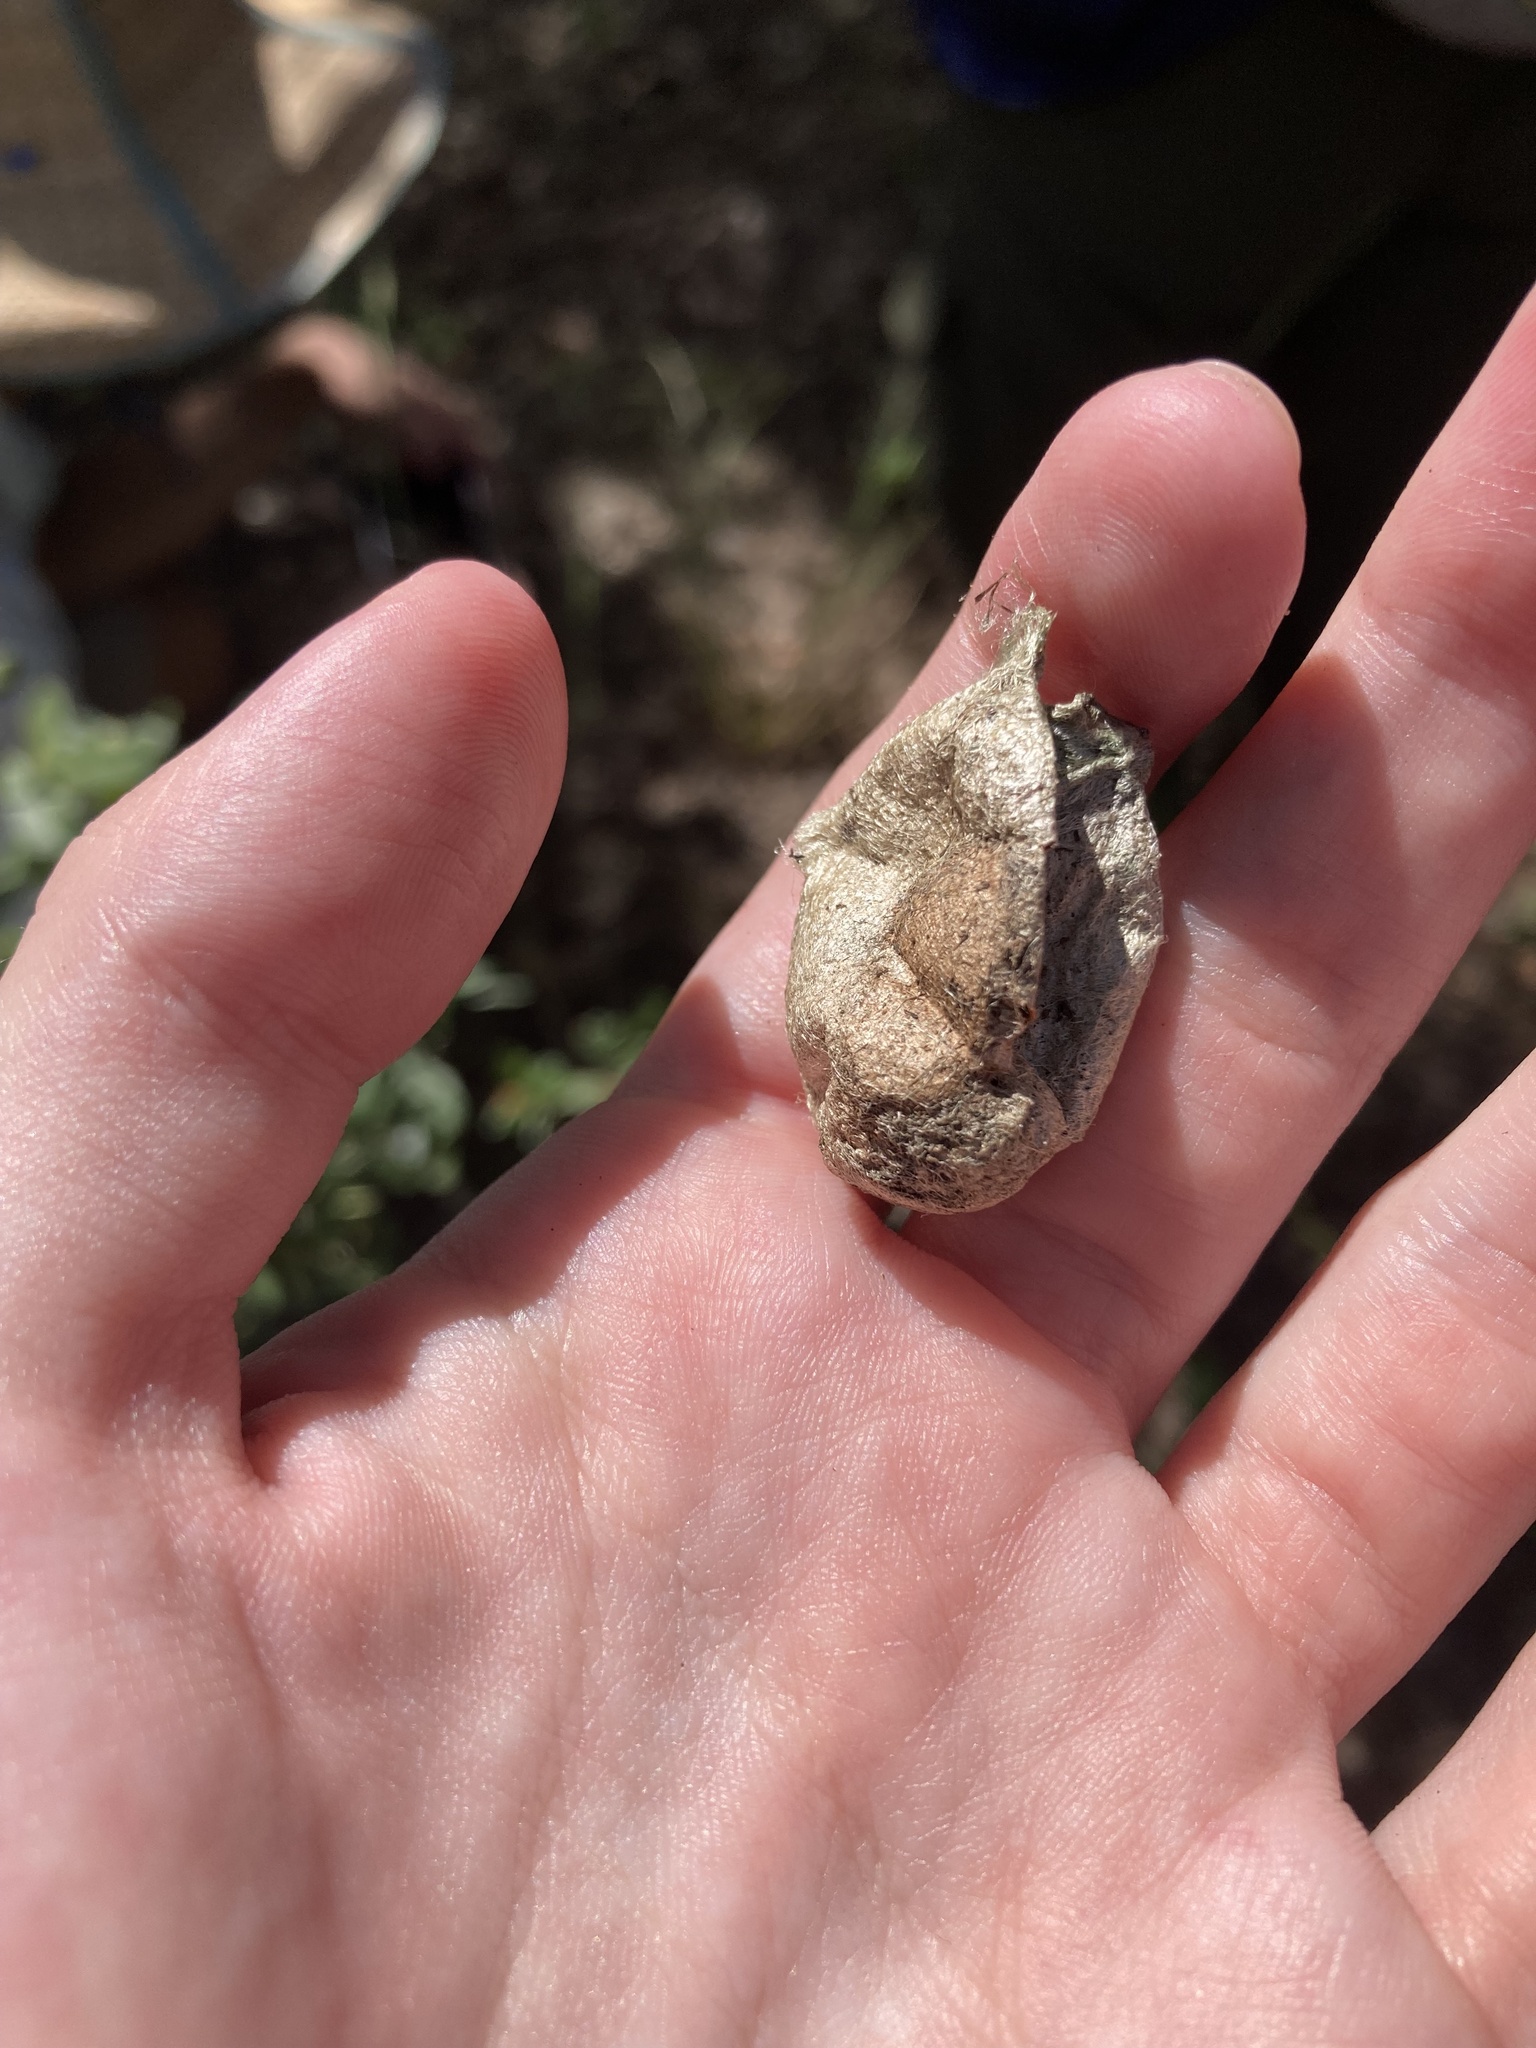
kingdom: Animalia
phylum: Arthropoda
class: Insecta
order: Lepidoptera
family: Saturniidae
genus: Antheraea
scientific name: Antheraea polyphemus
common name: Polyphemus moth
